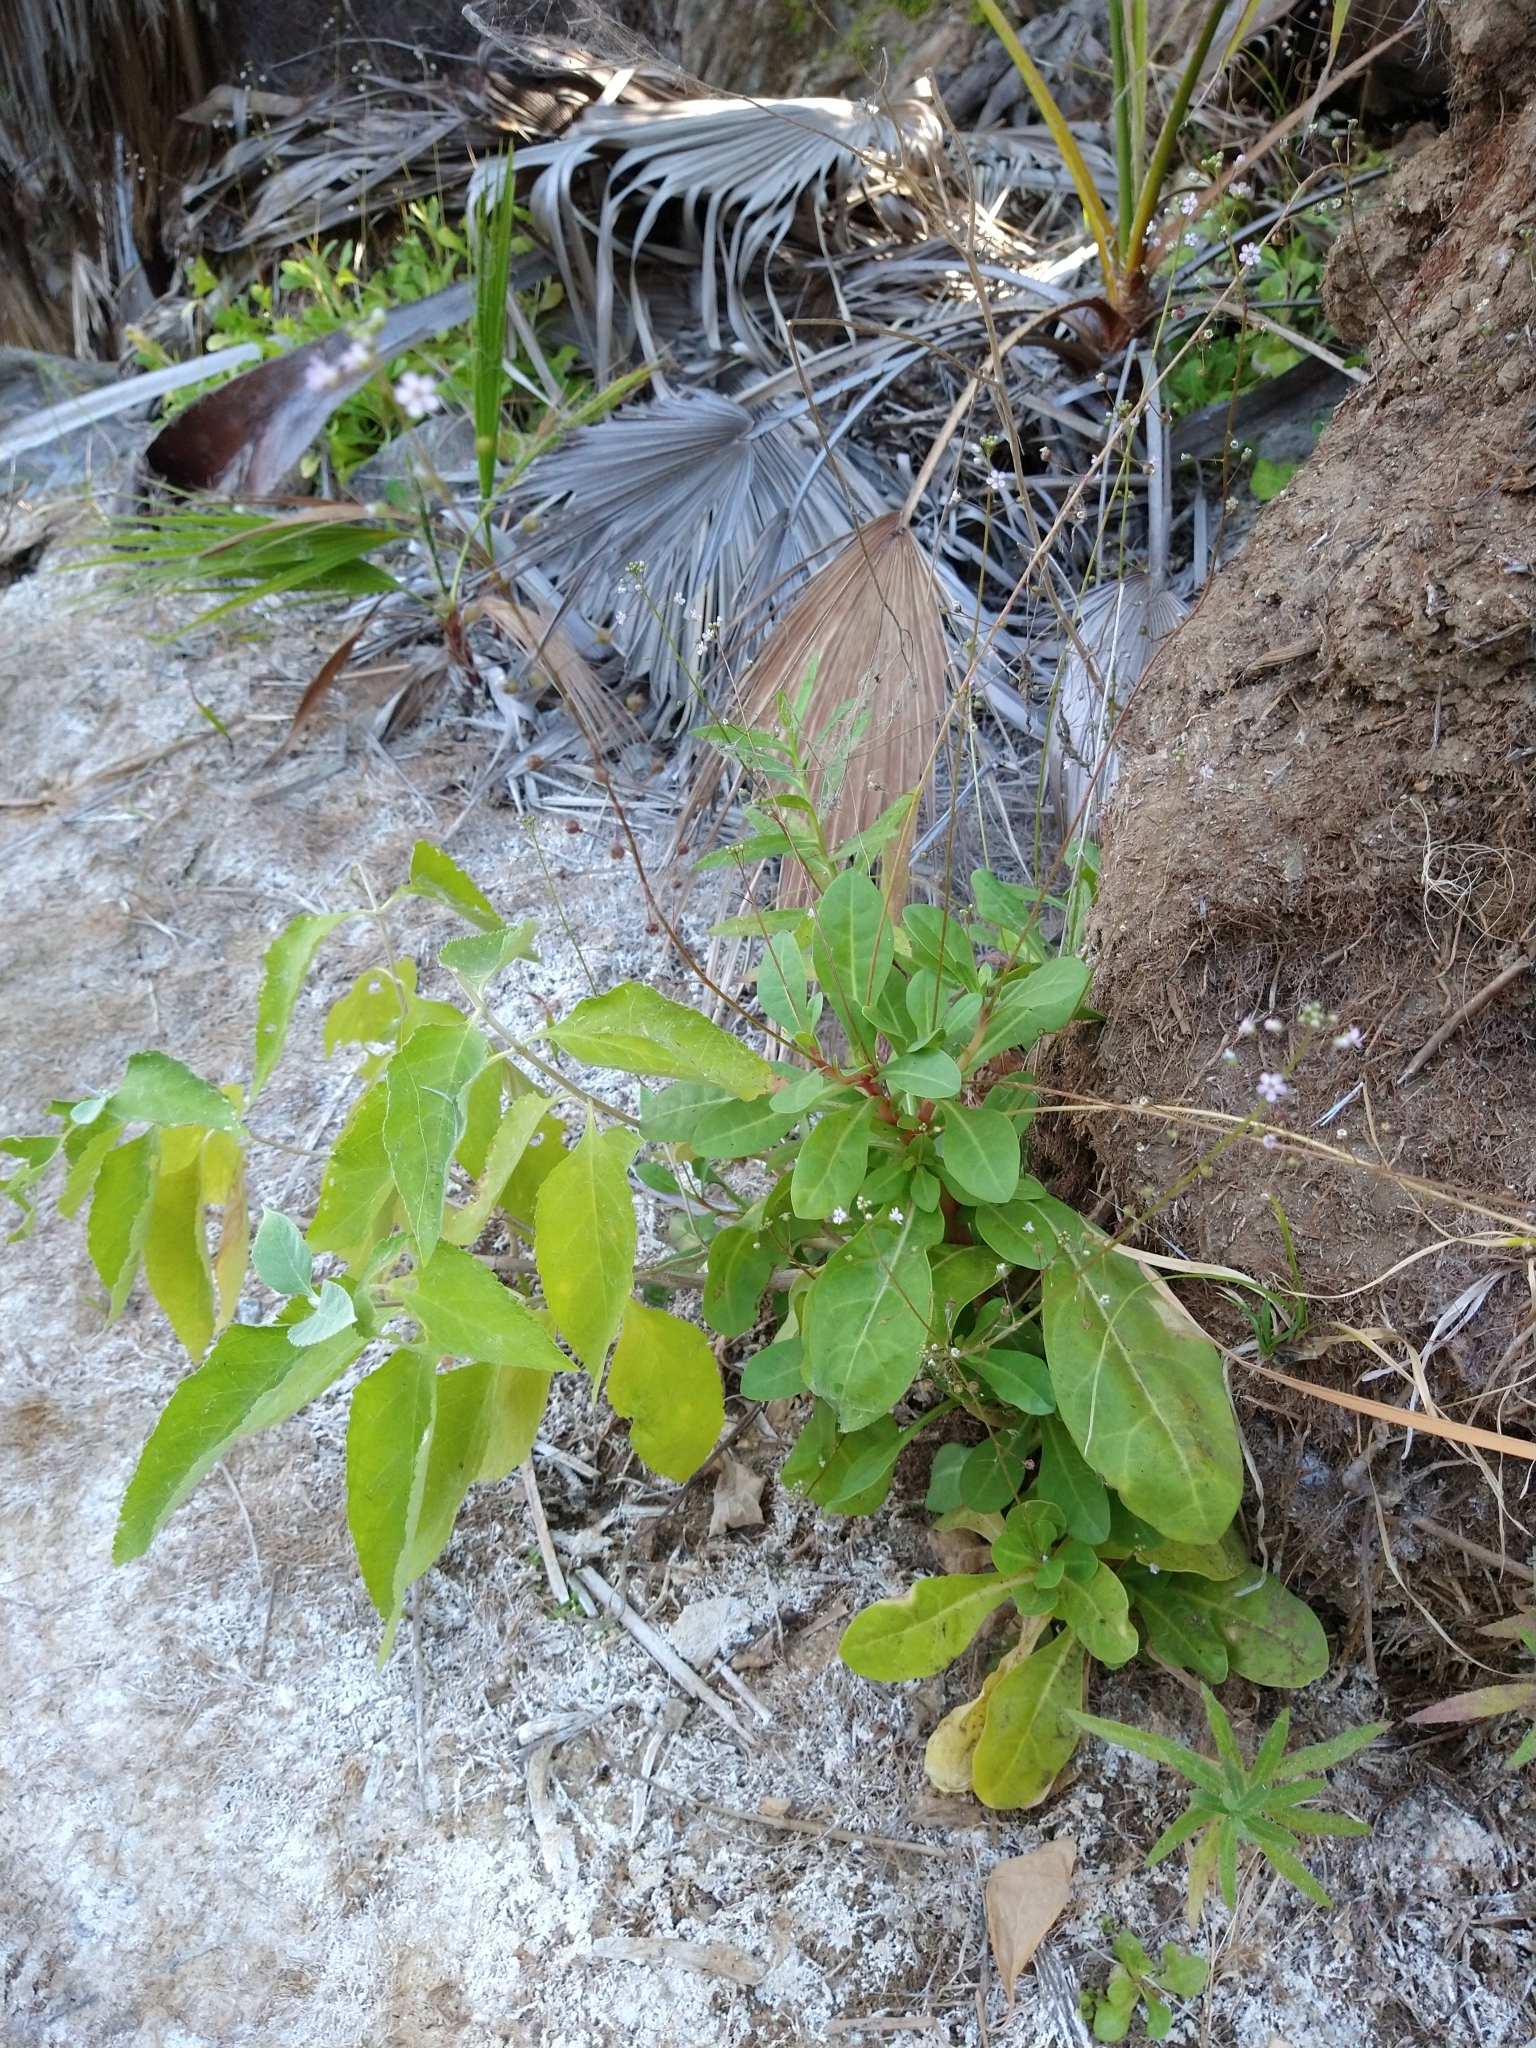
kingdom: Plantae
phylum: Tracheophyta
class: Magnoliopsida
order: Ericales
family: Primulaceae
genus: Samolus
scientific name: Samolus ebracteatus
